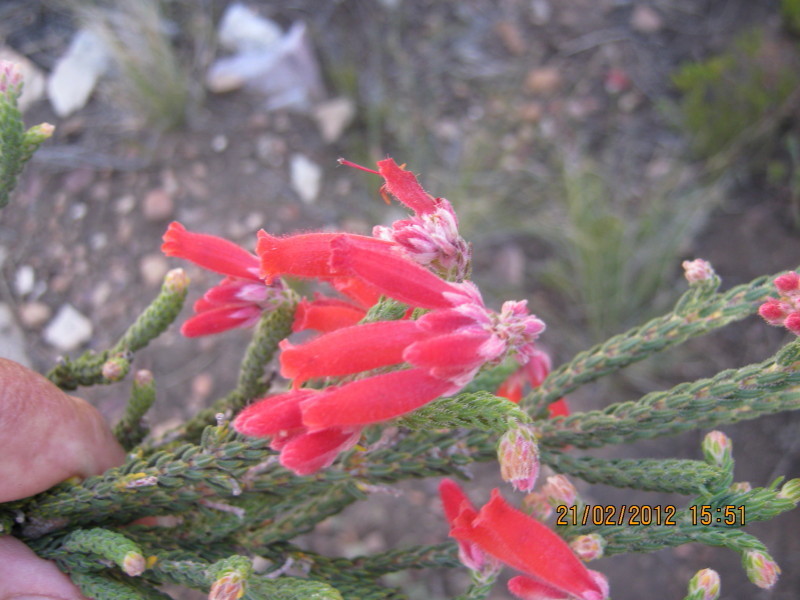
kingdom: Plantae
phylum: Tracheophyta
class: Magnoliopsida
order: Ericales
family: Ericaceae
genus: Erica
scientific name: Erica strigilifolia
